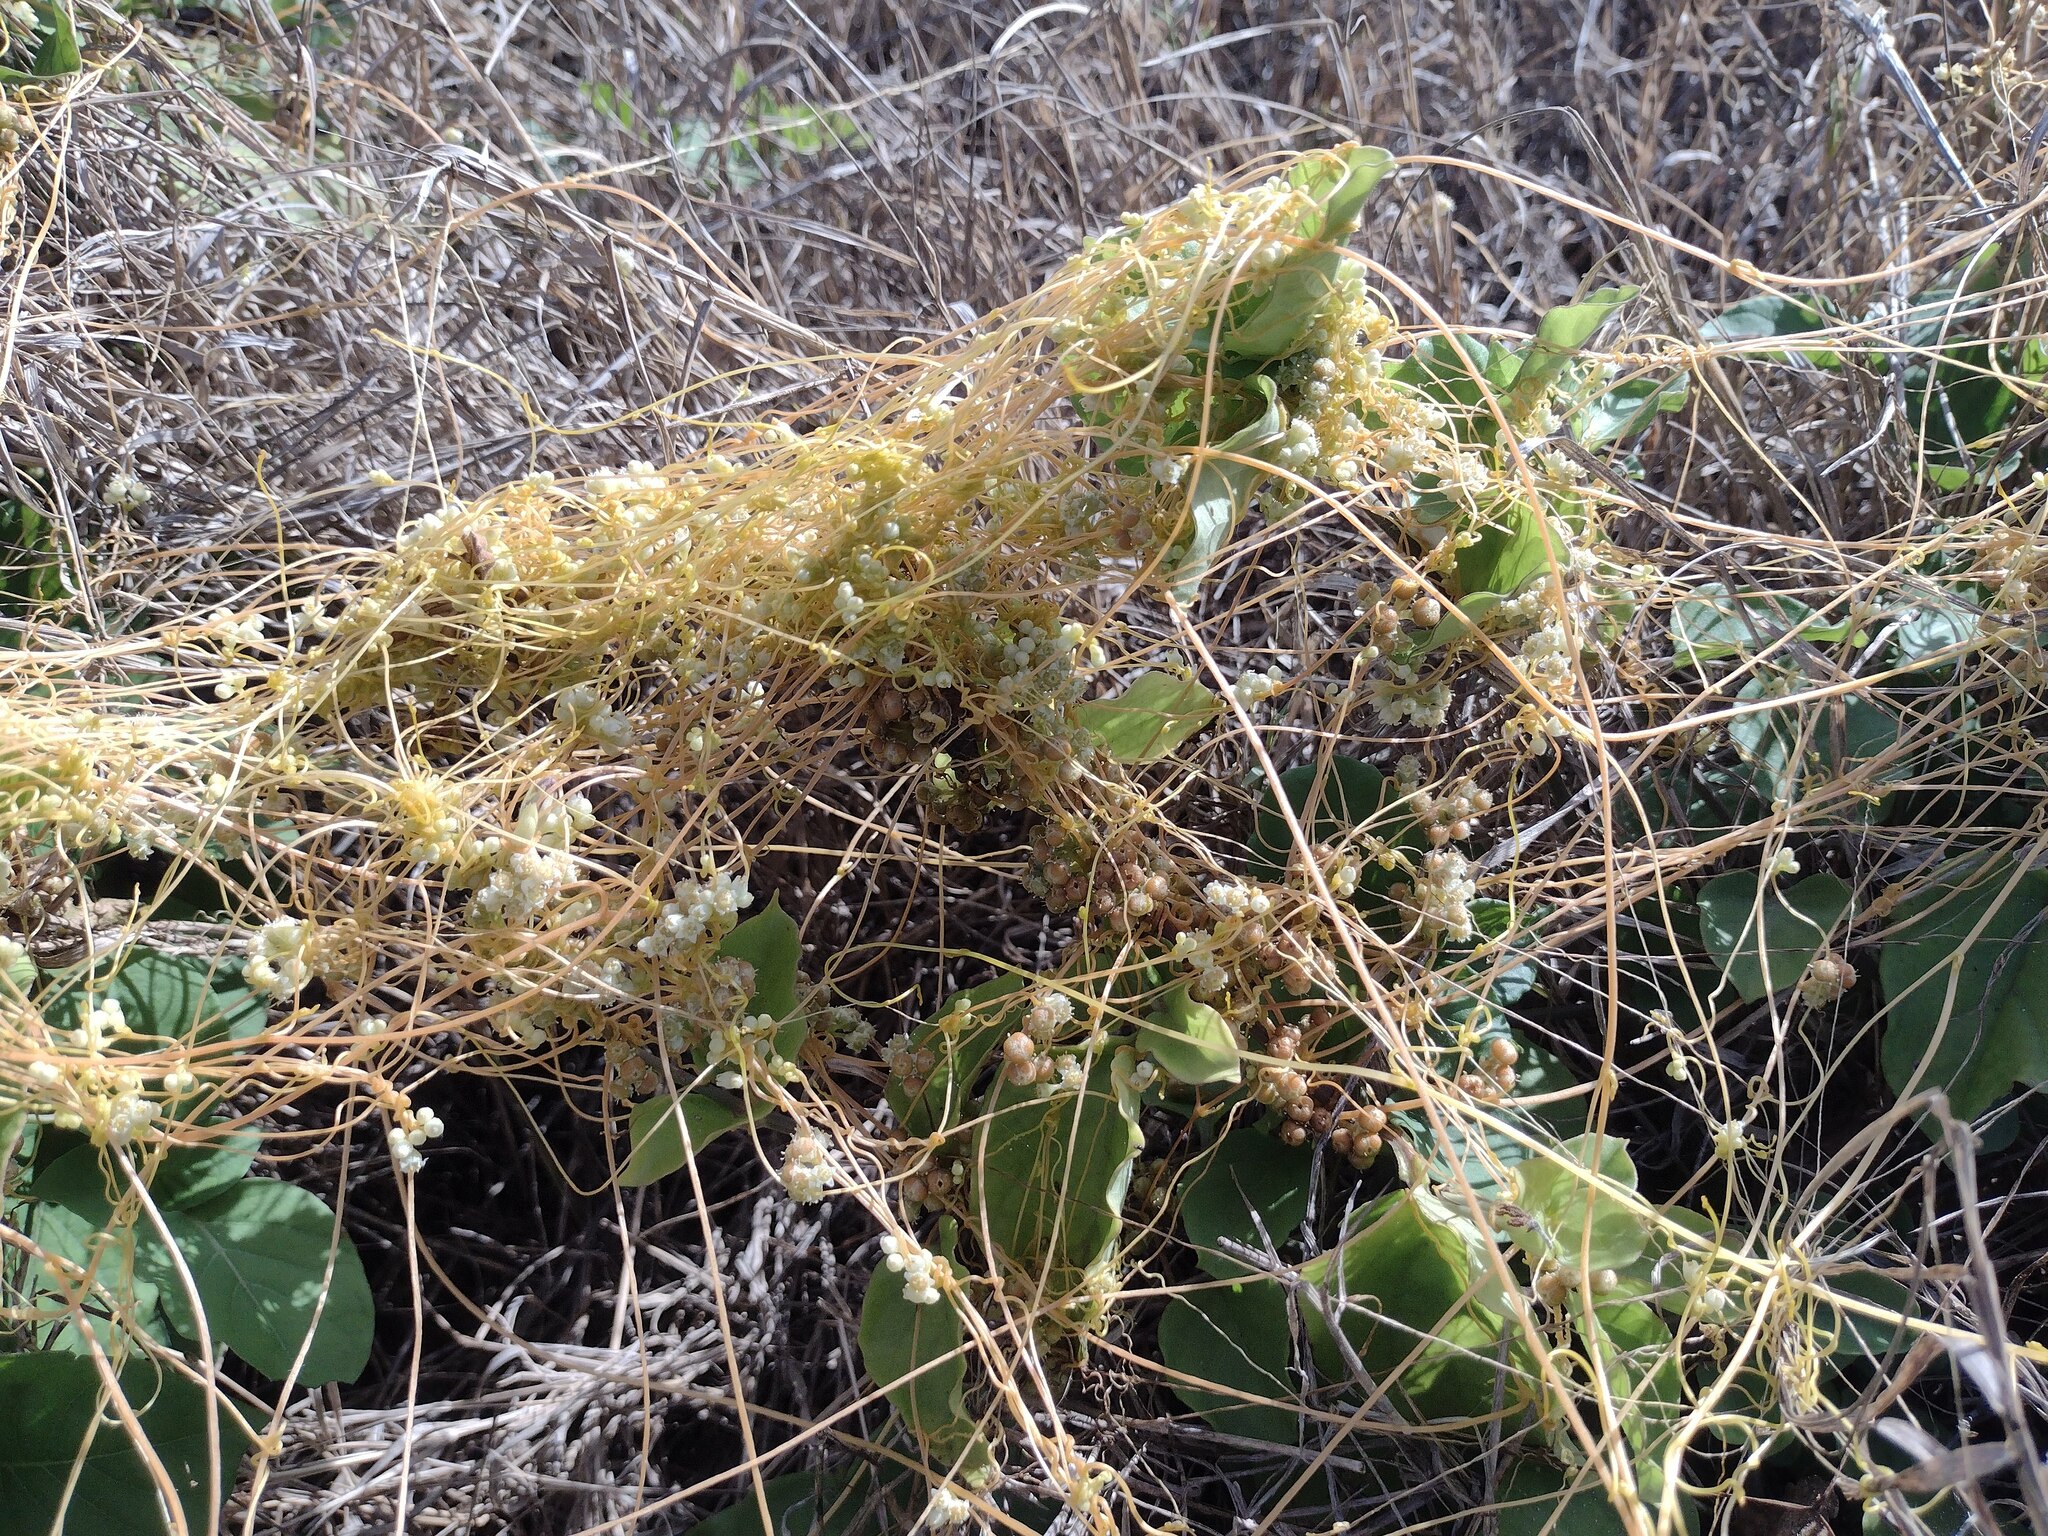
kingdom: Plantae
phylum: Tracheophyta
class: Magnoliopsida
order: Solanales
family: Convolvulaceae
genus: Cuscuta
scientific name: Cuscuta campestris
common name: Yellow dodder
